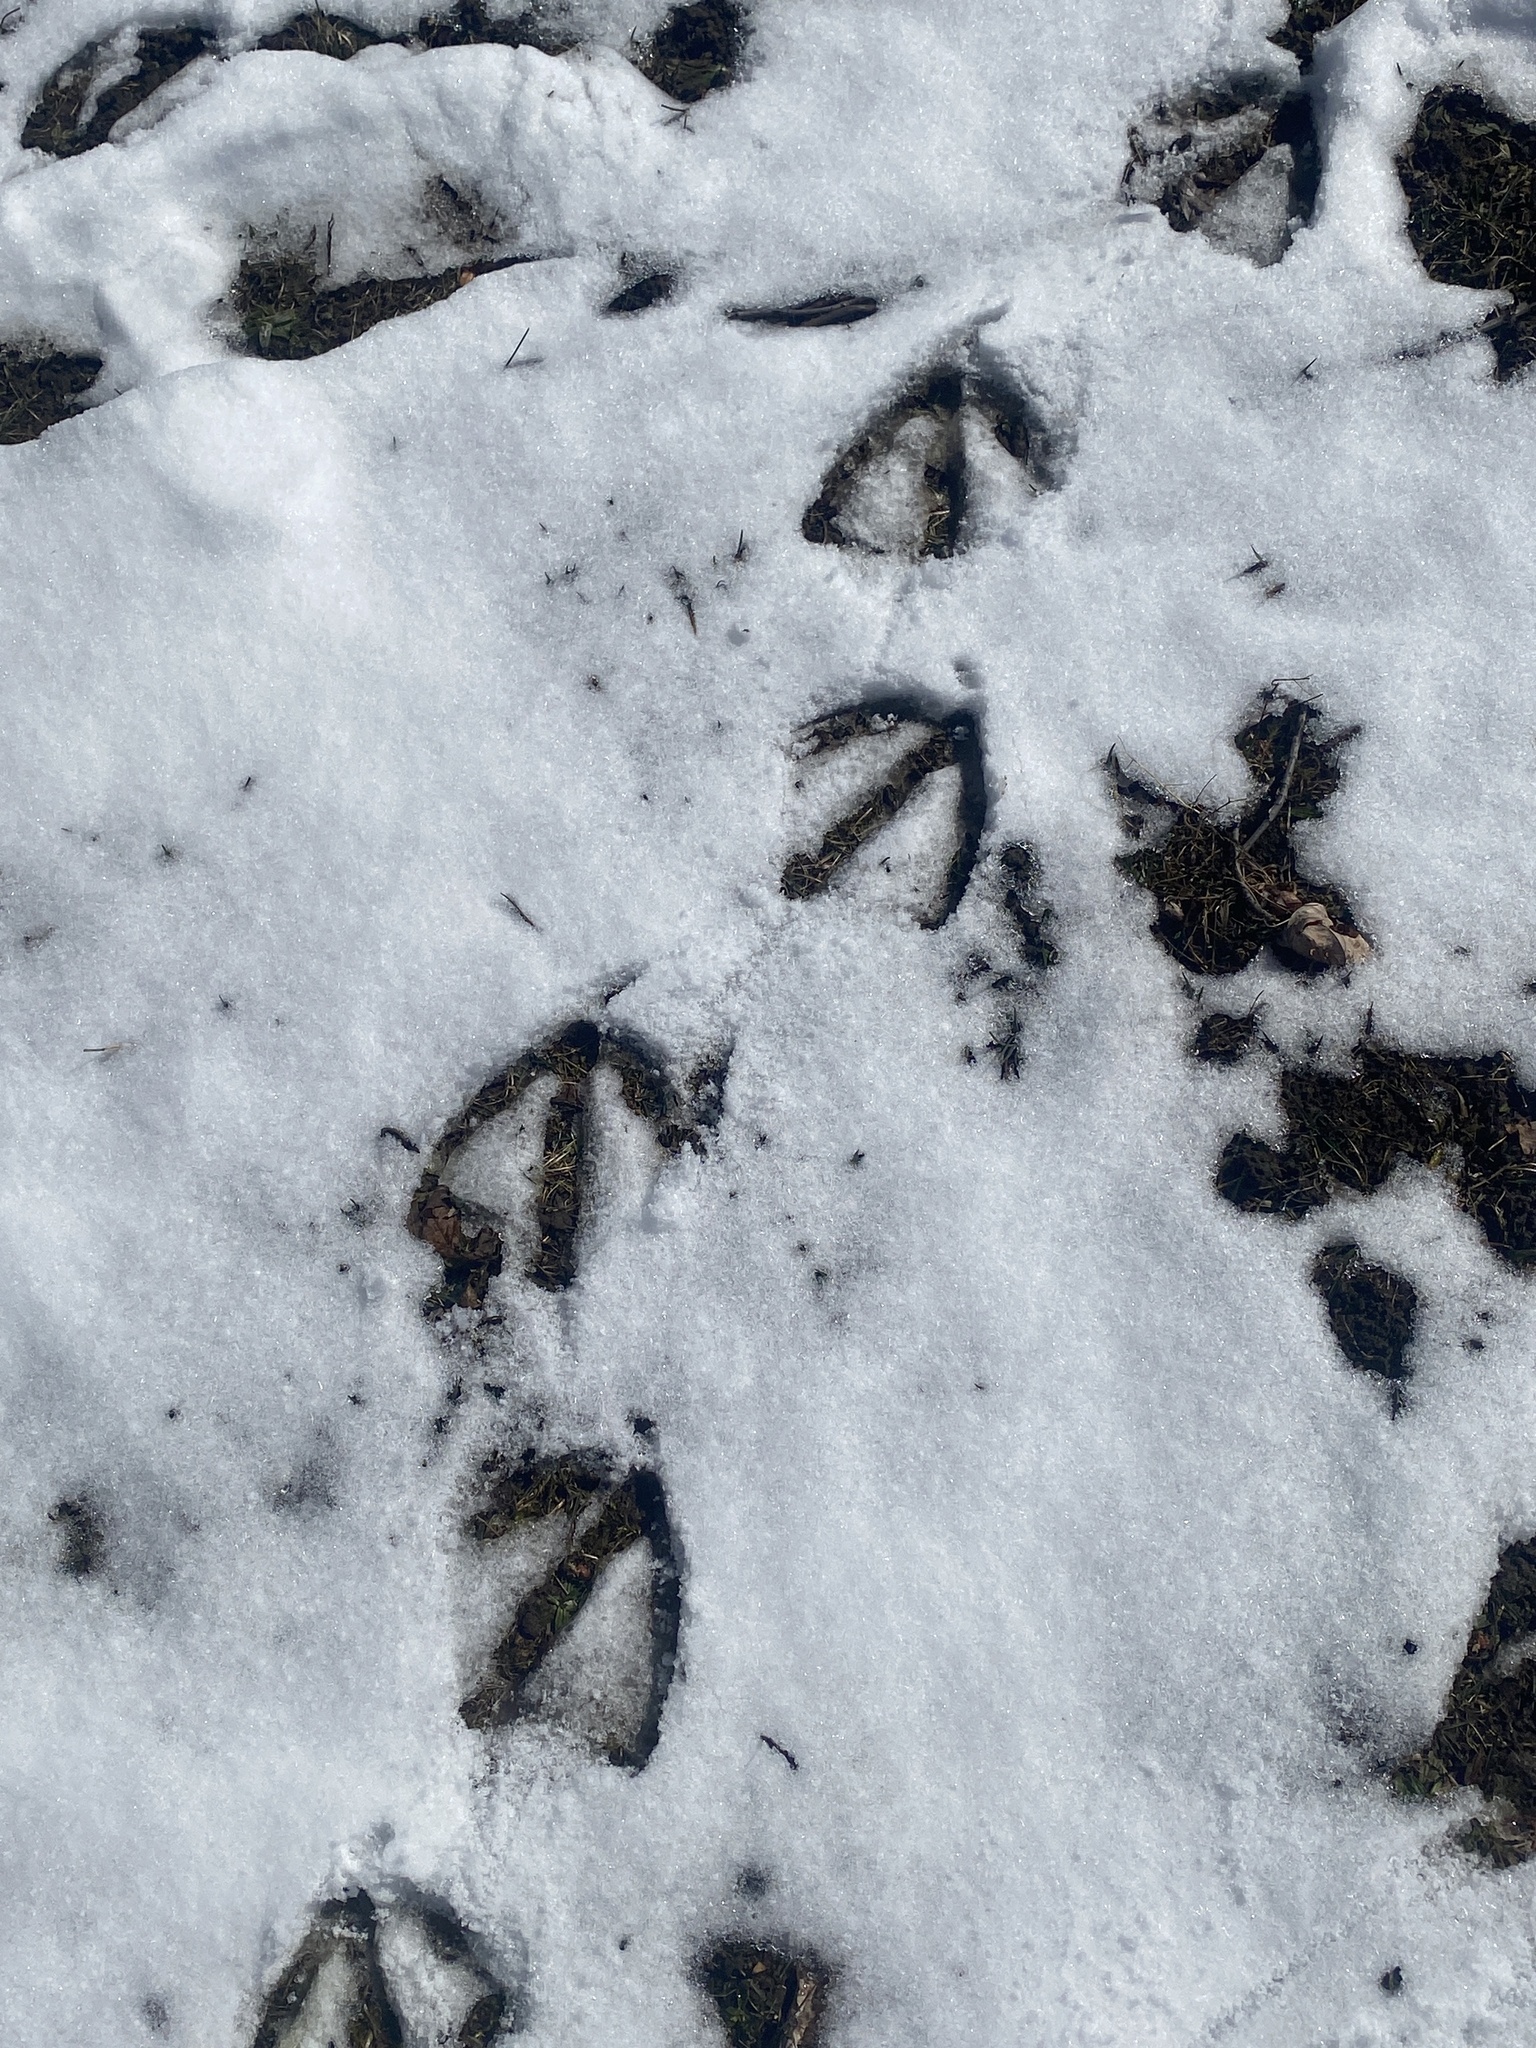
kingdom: Animalia
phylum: Chordata
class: Aves
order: Anseriformes
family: Anatidae
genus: Branta
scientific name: Branta canadensis
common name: Canada goose
